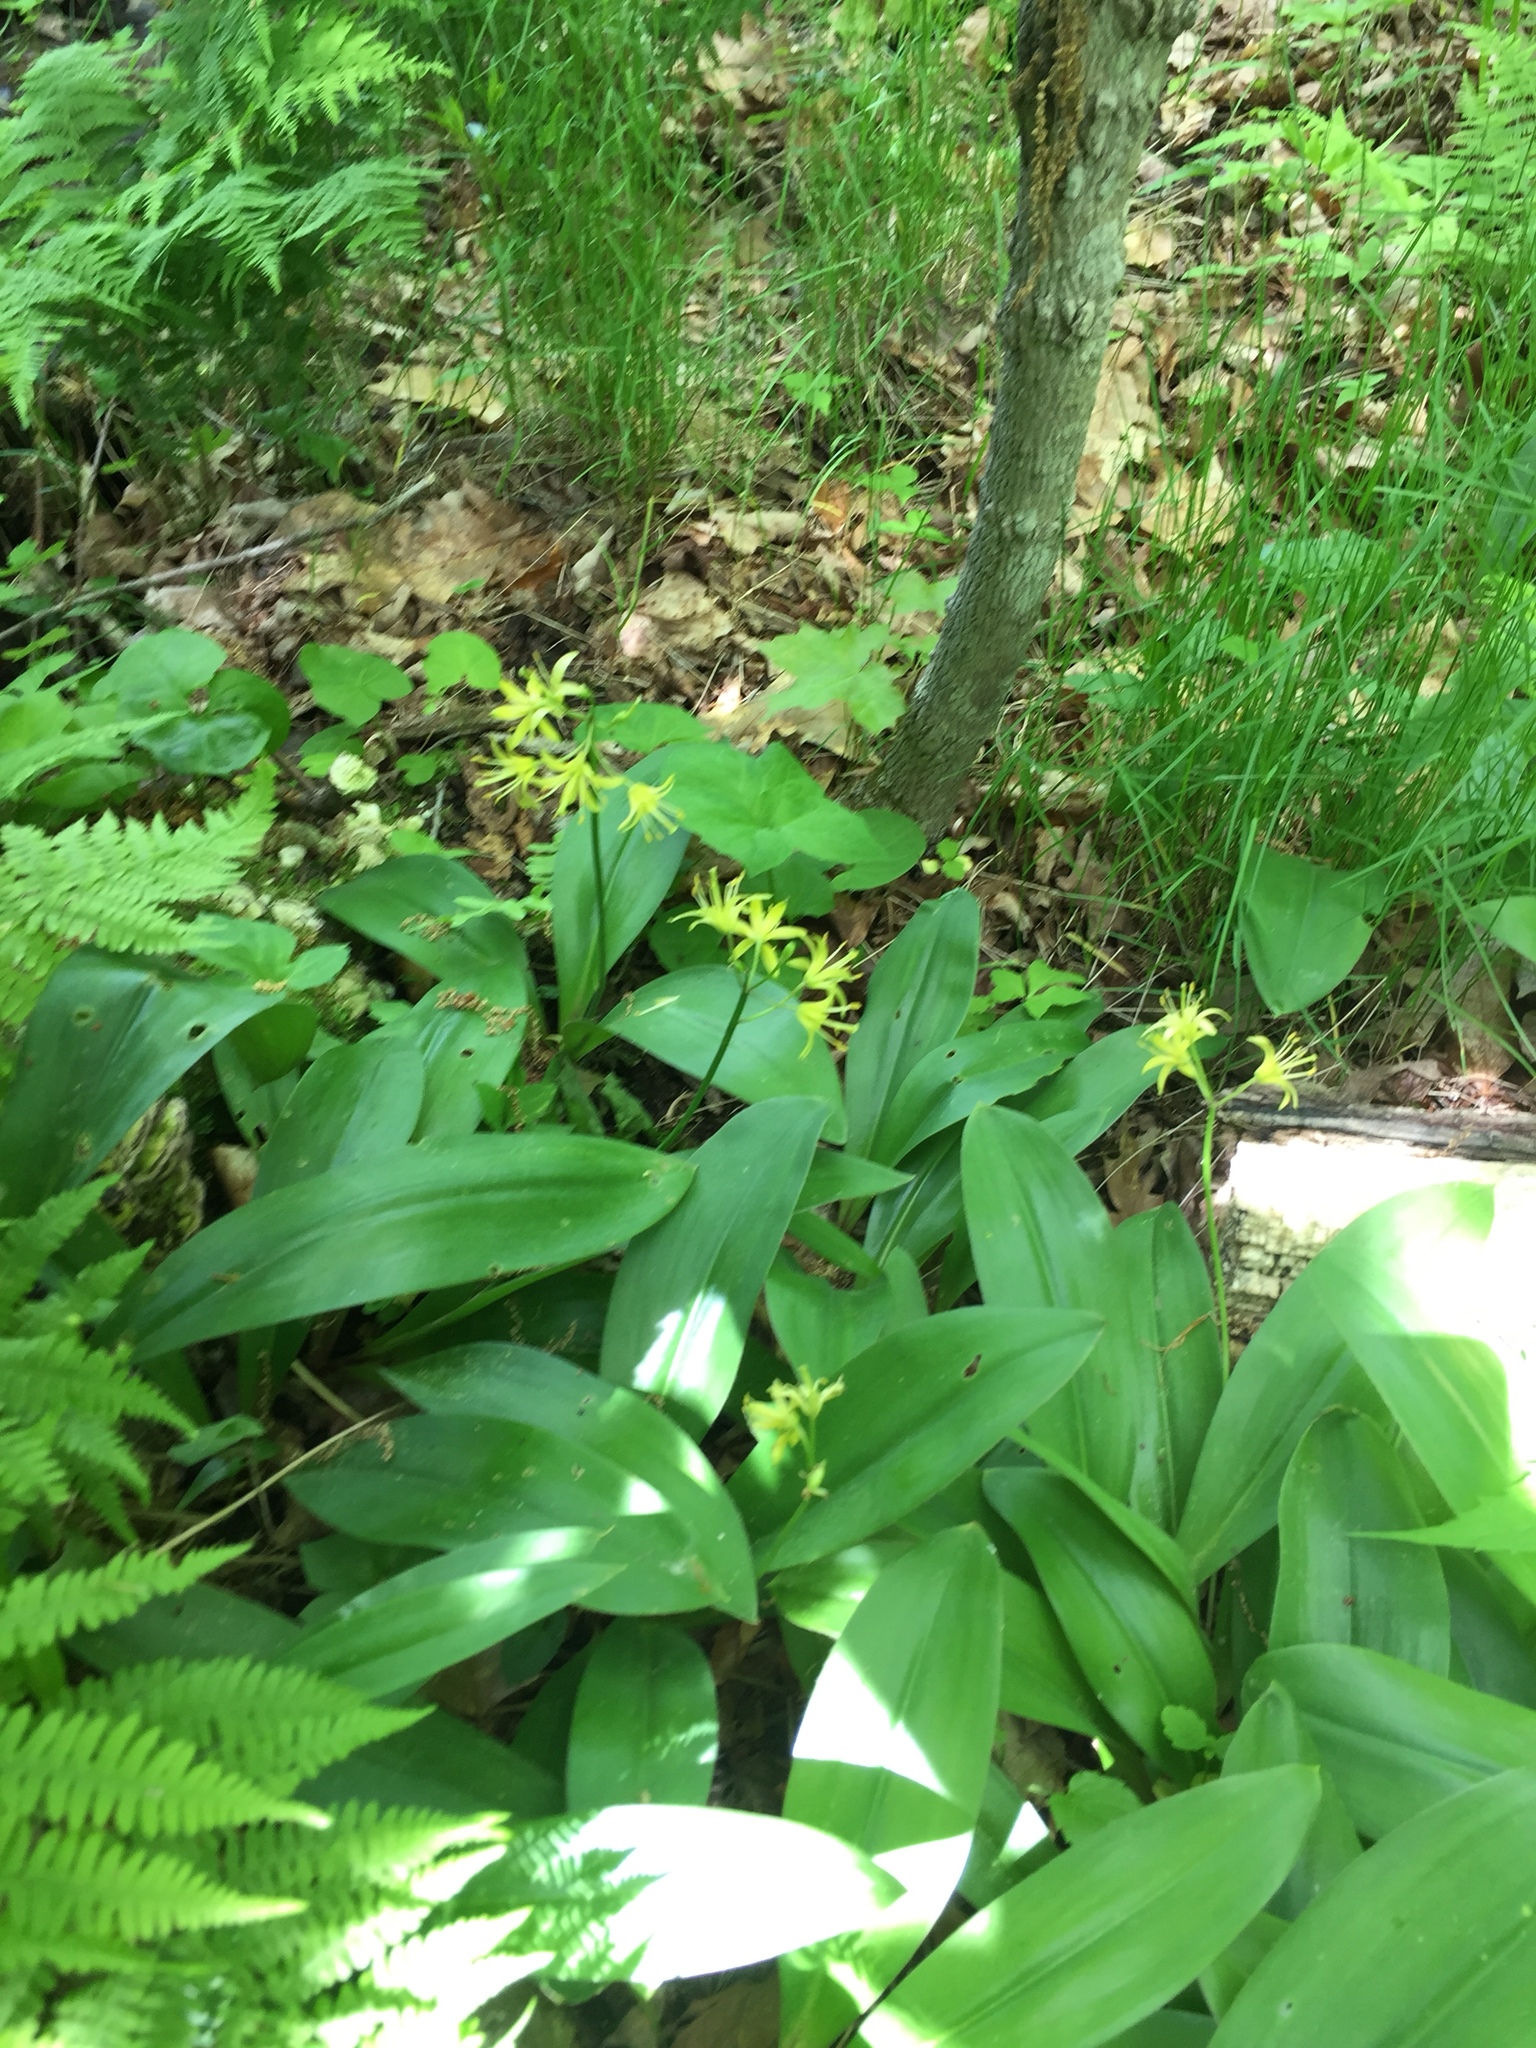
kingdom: Plantae
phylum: Tracheophyta
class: Liliopsida
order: Liliales
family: Liliaceae
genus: Clintonia
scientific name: Clintonia borealis
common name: Yellow clintonia
